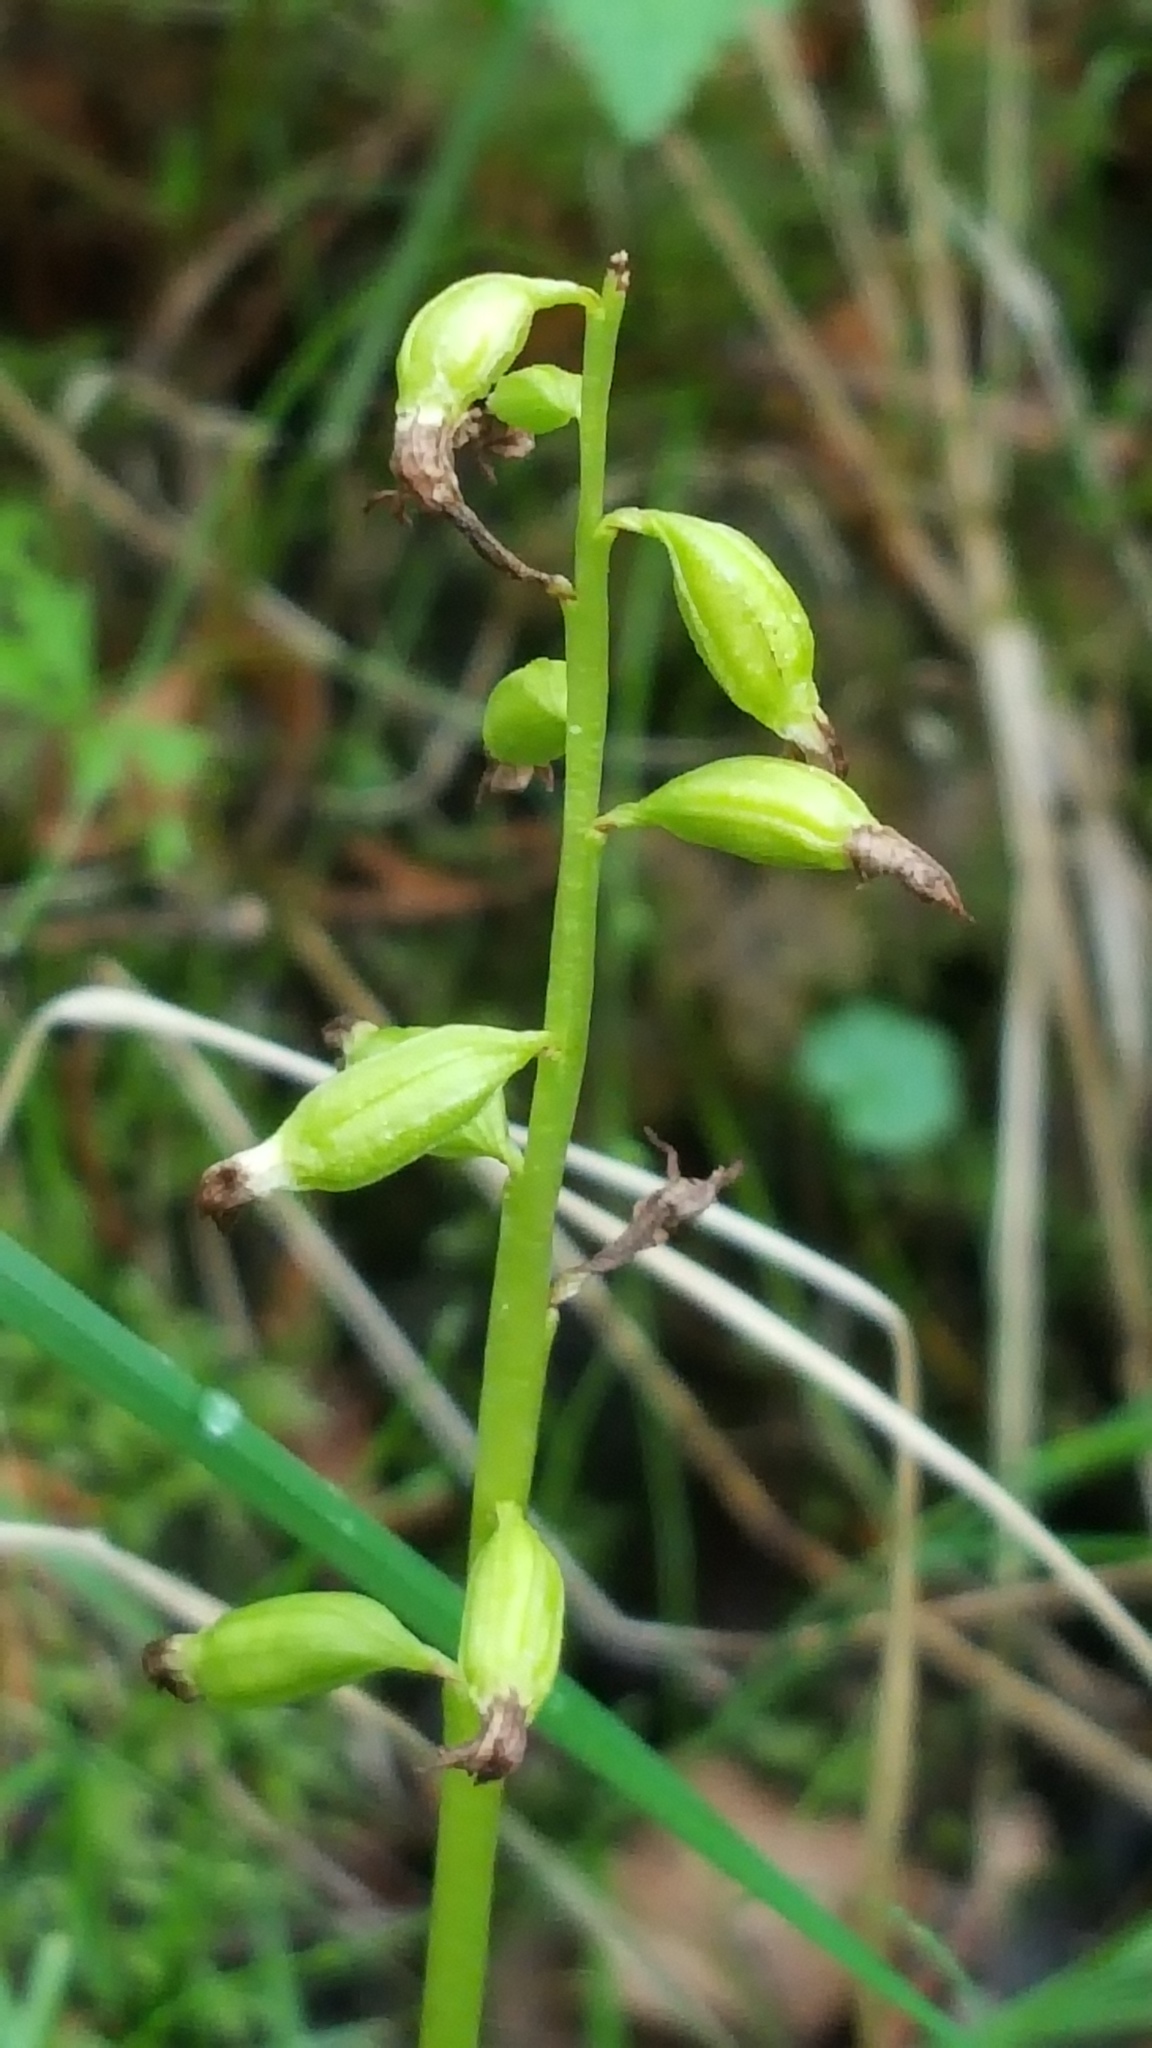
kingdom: Plantae
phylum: Tracheophyta
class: Liliopsida
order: Asparagales
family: Orchidaceae
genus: Corallorhiza
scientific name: Corallorhiza trifida
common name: Yellow coralroot
